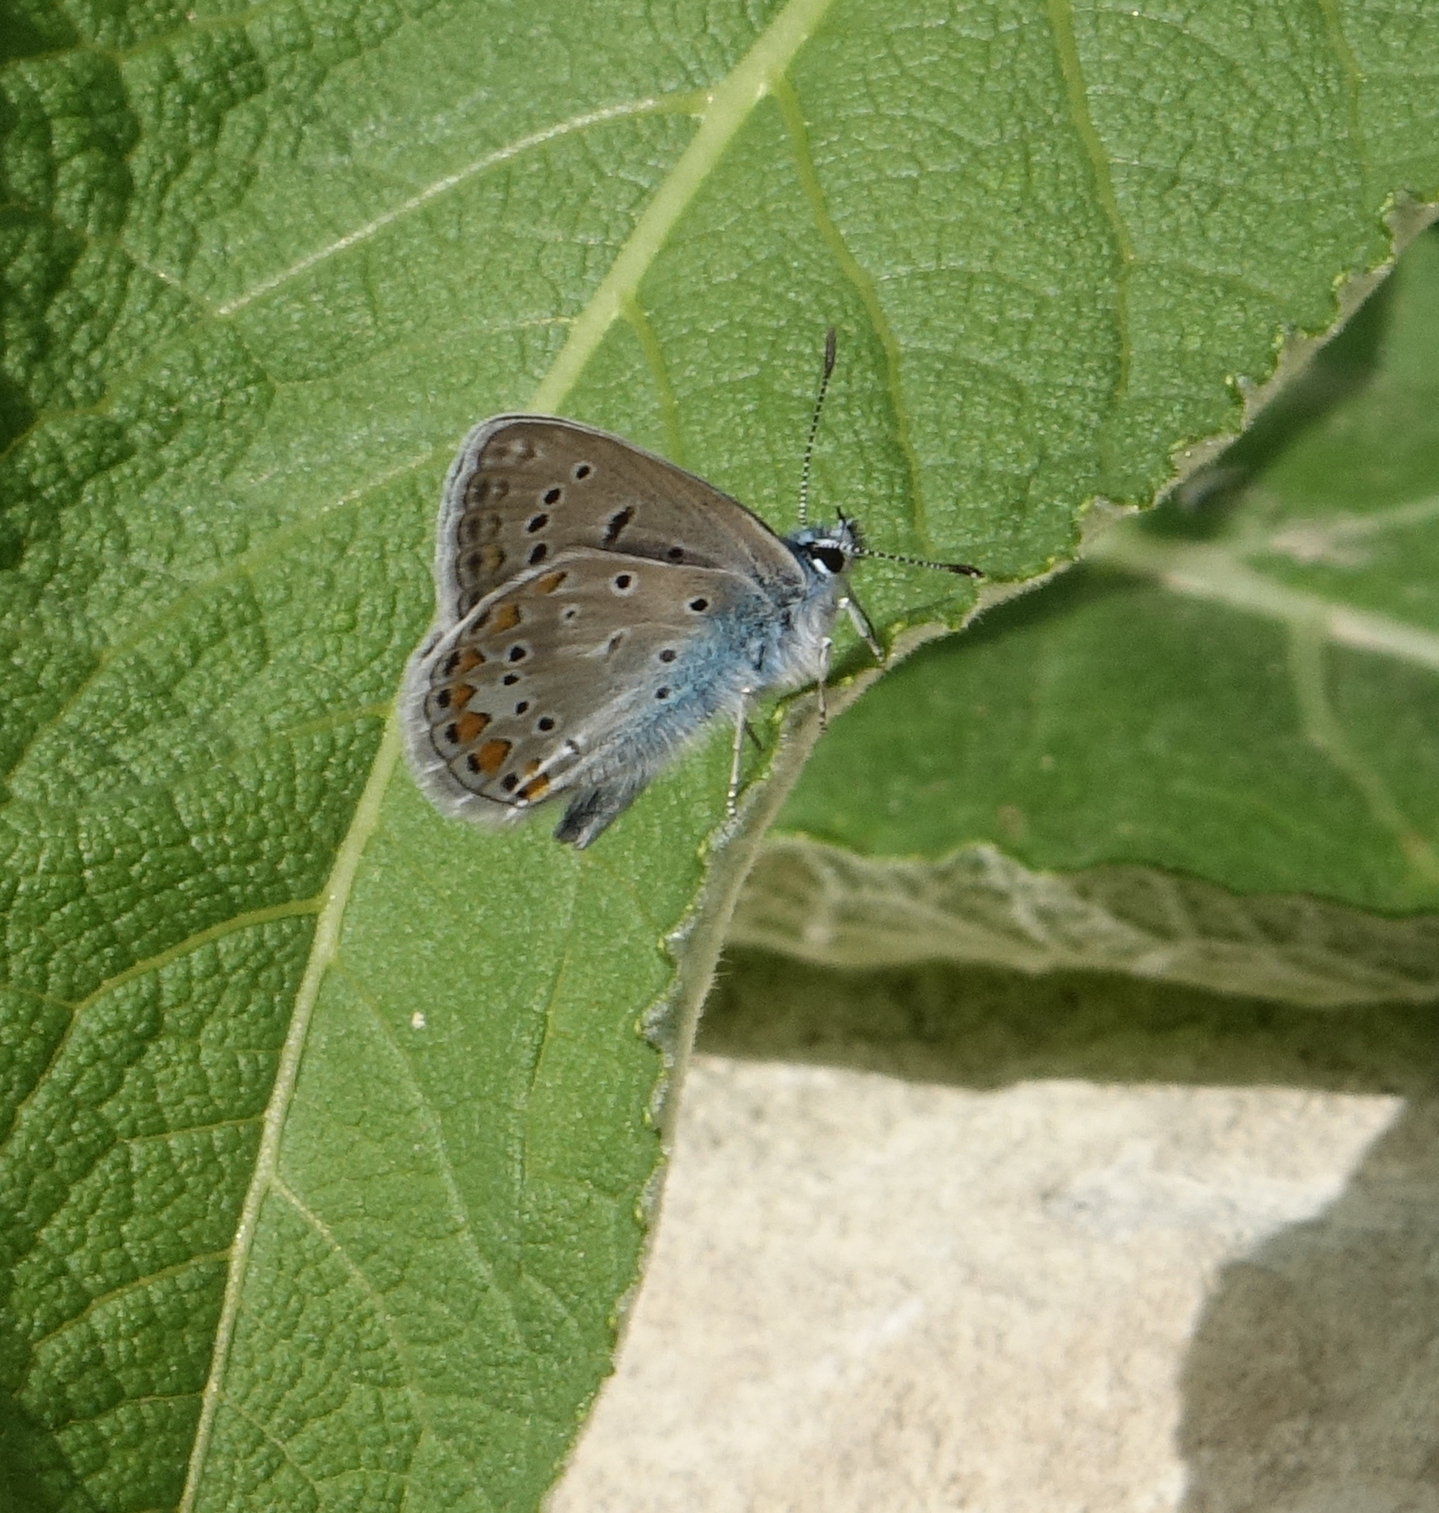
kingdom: Animalia
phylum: Arthropoda
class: Insecta
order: Lepidoptera
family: Lycaenidae
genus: Polyommatus
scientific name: Polyommatus icarus
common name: Common blue
